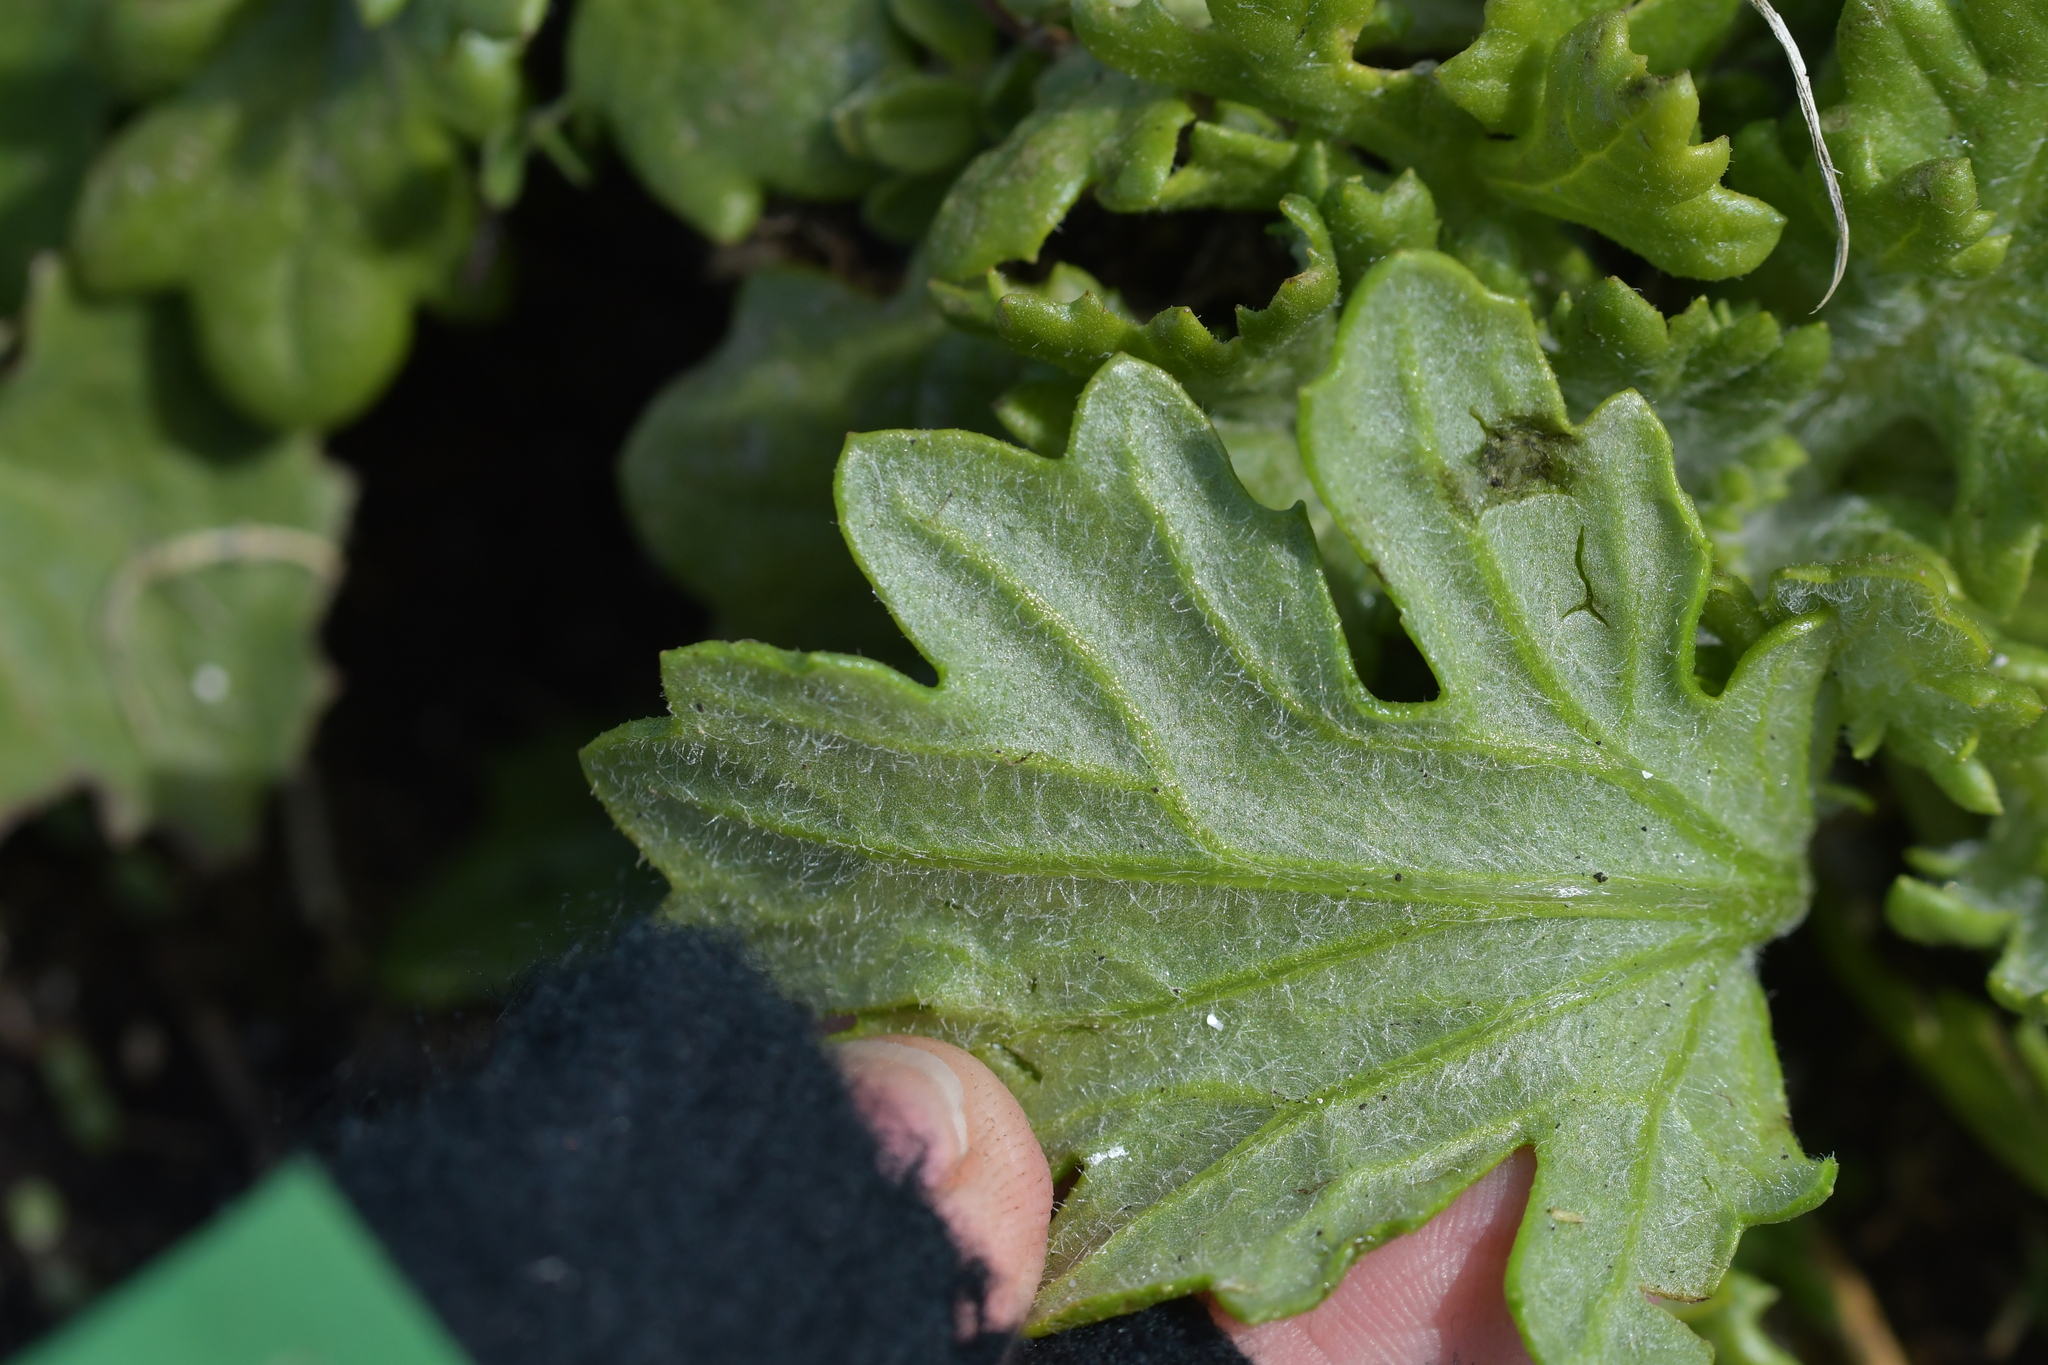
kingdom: Plantae
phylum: Tracheophyta
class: Magnoliopsida
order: Asterales
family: Asteraceae
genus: Senecio
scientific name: Senecio radiolatus
